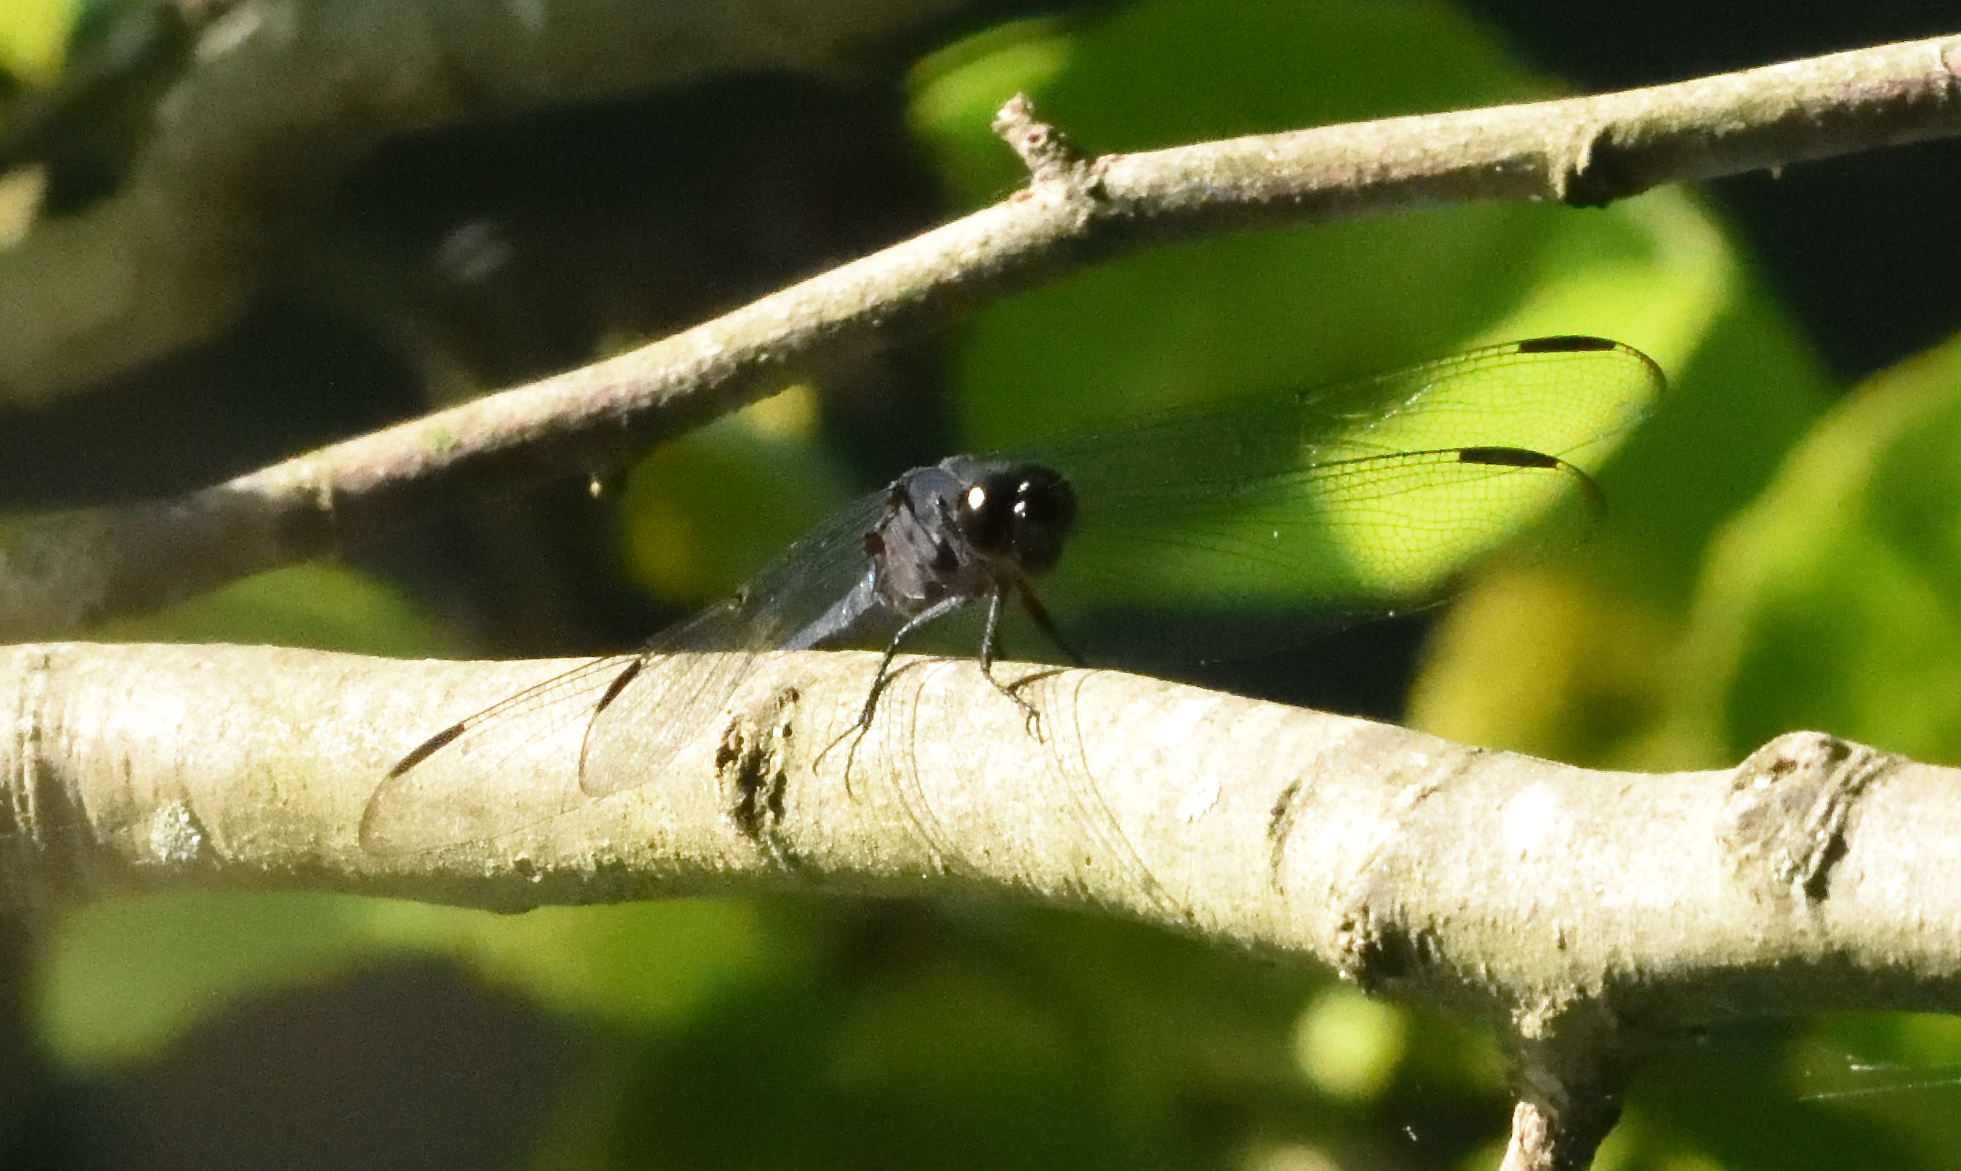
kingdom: Animalia
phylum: Arthropoda
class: Insecta
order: Odonata
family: Libellulidae
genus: Libellula
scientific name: Libellula incesta
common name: Slaty skimmer
